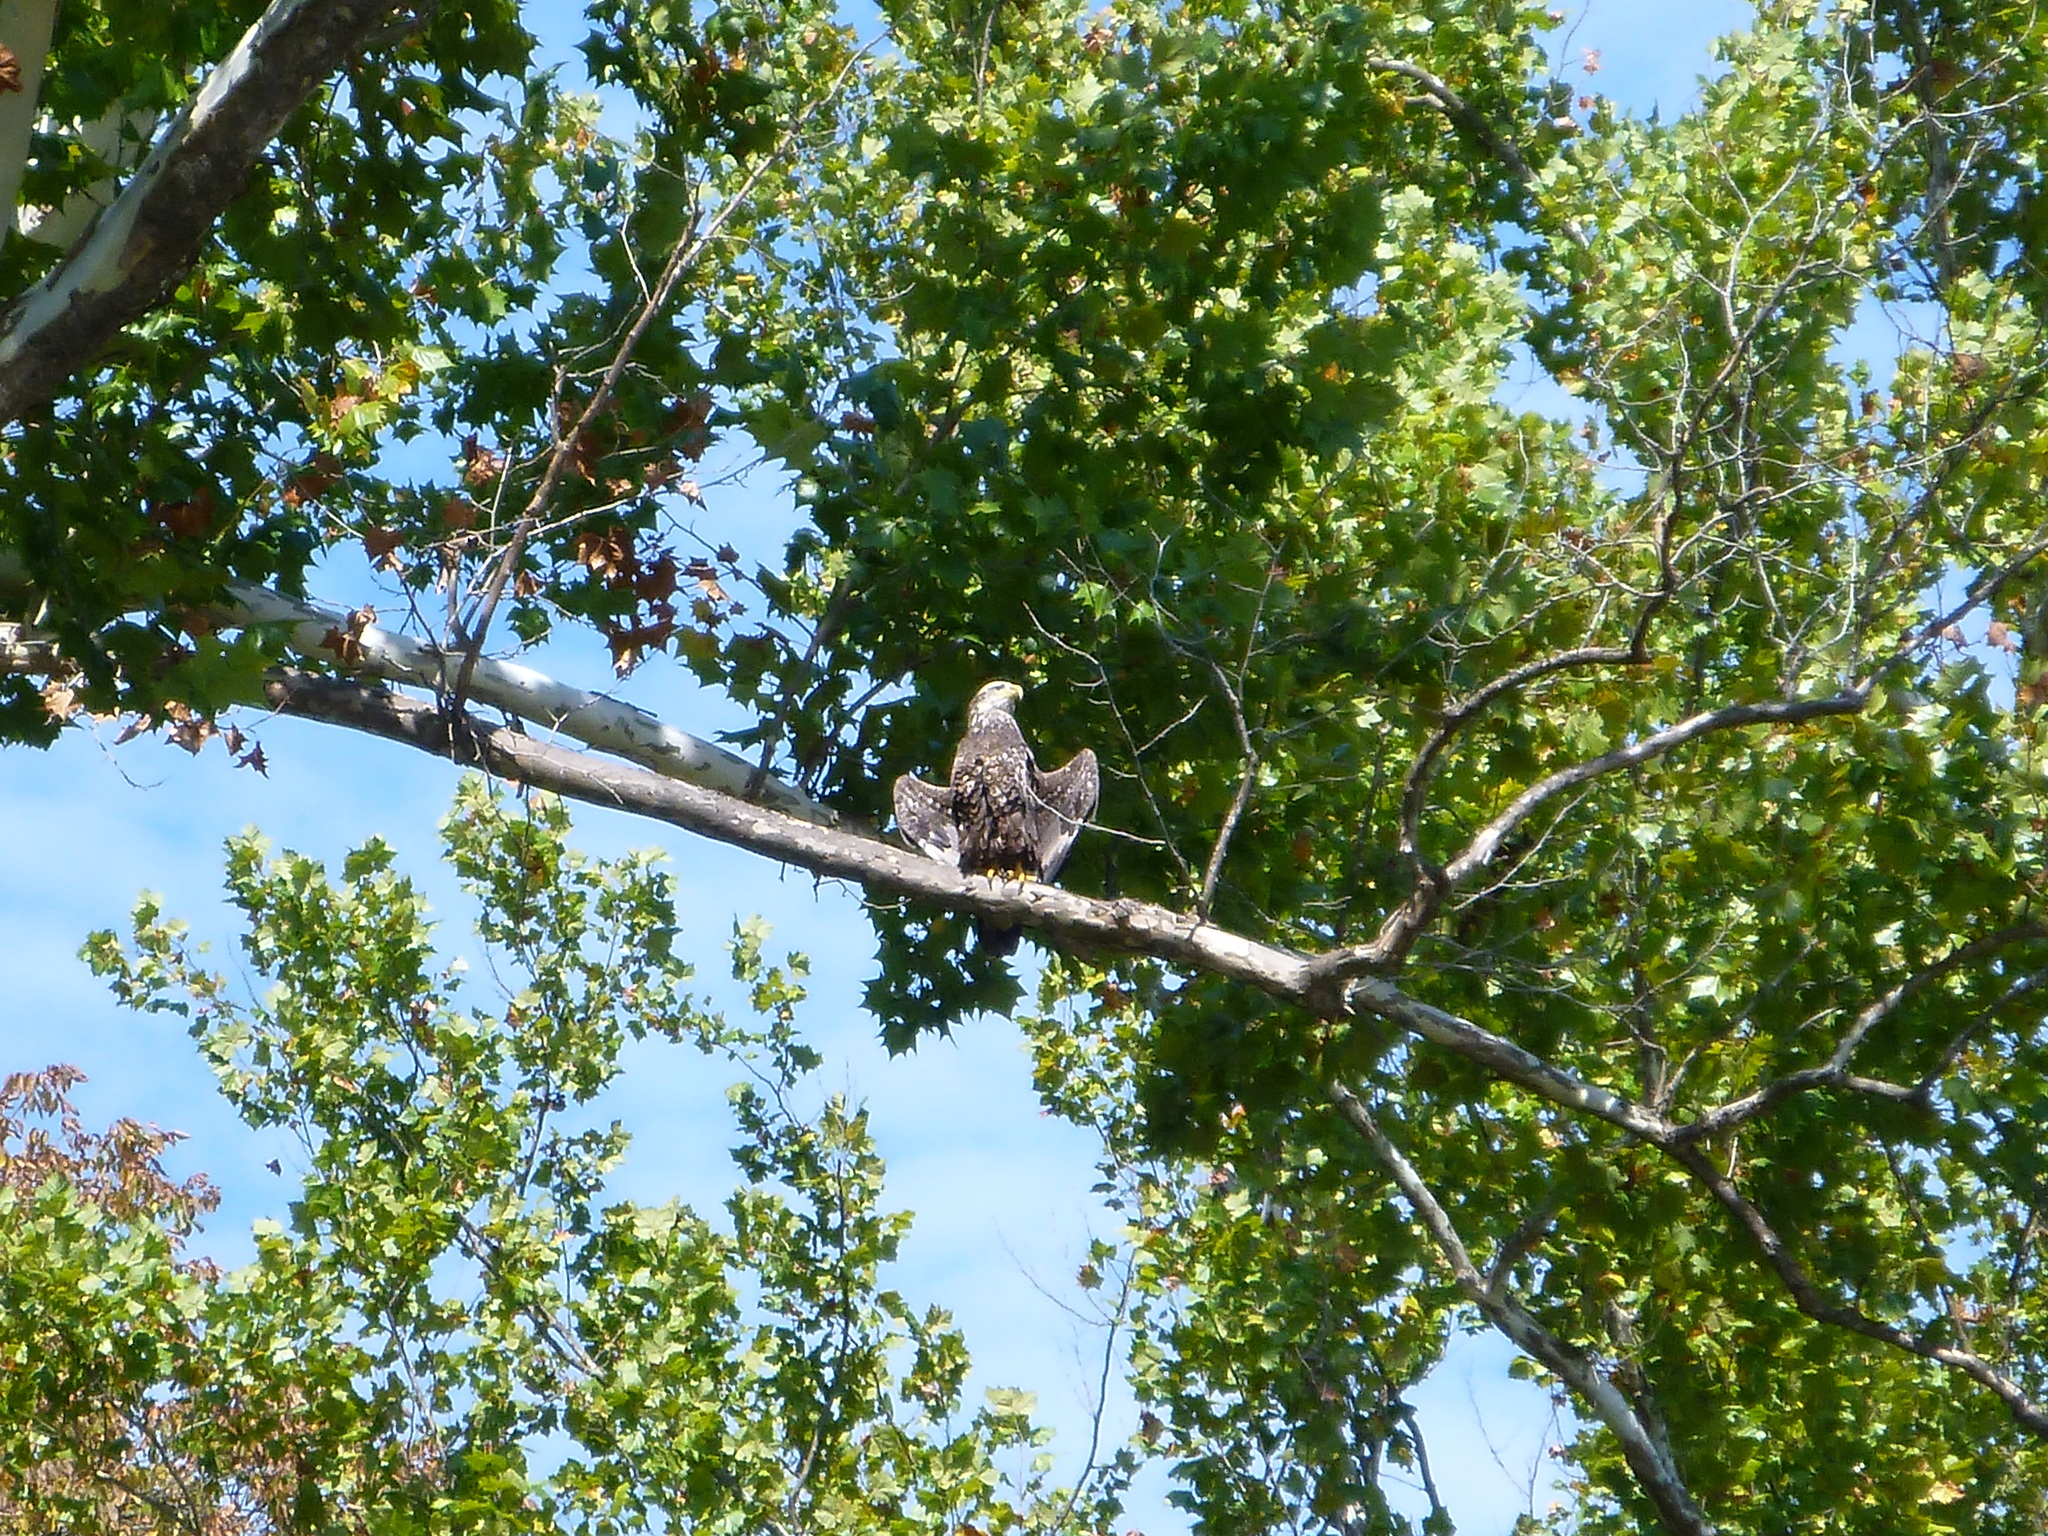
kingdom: Animalia
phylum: Chordata
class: Aves
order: Accipitriformes
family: Accipitridae
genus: Haliaeetus
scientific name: Haliaeetus leucocephalus
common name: Bald eagle
